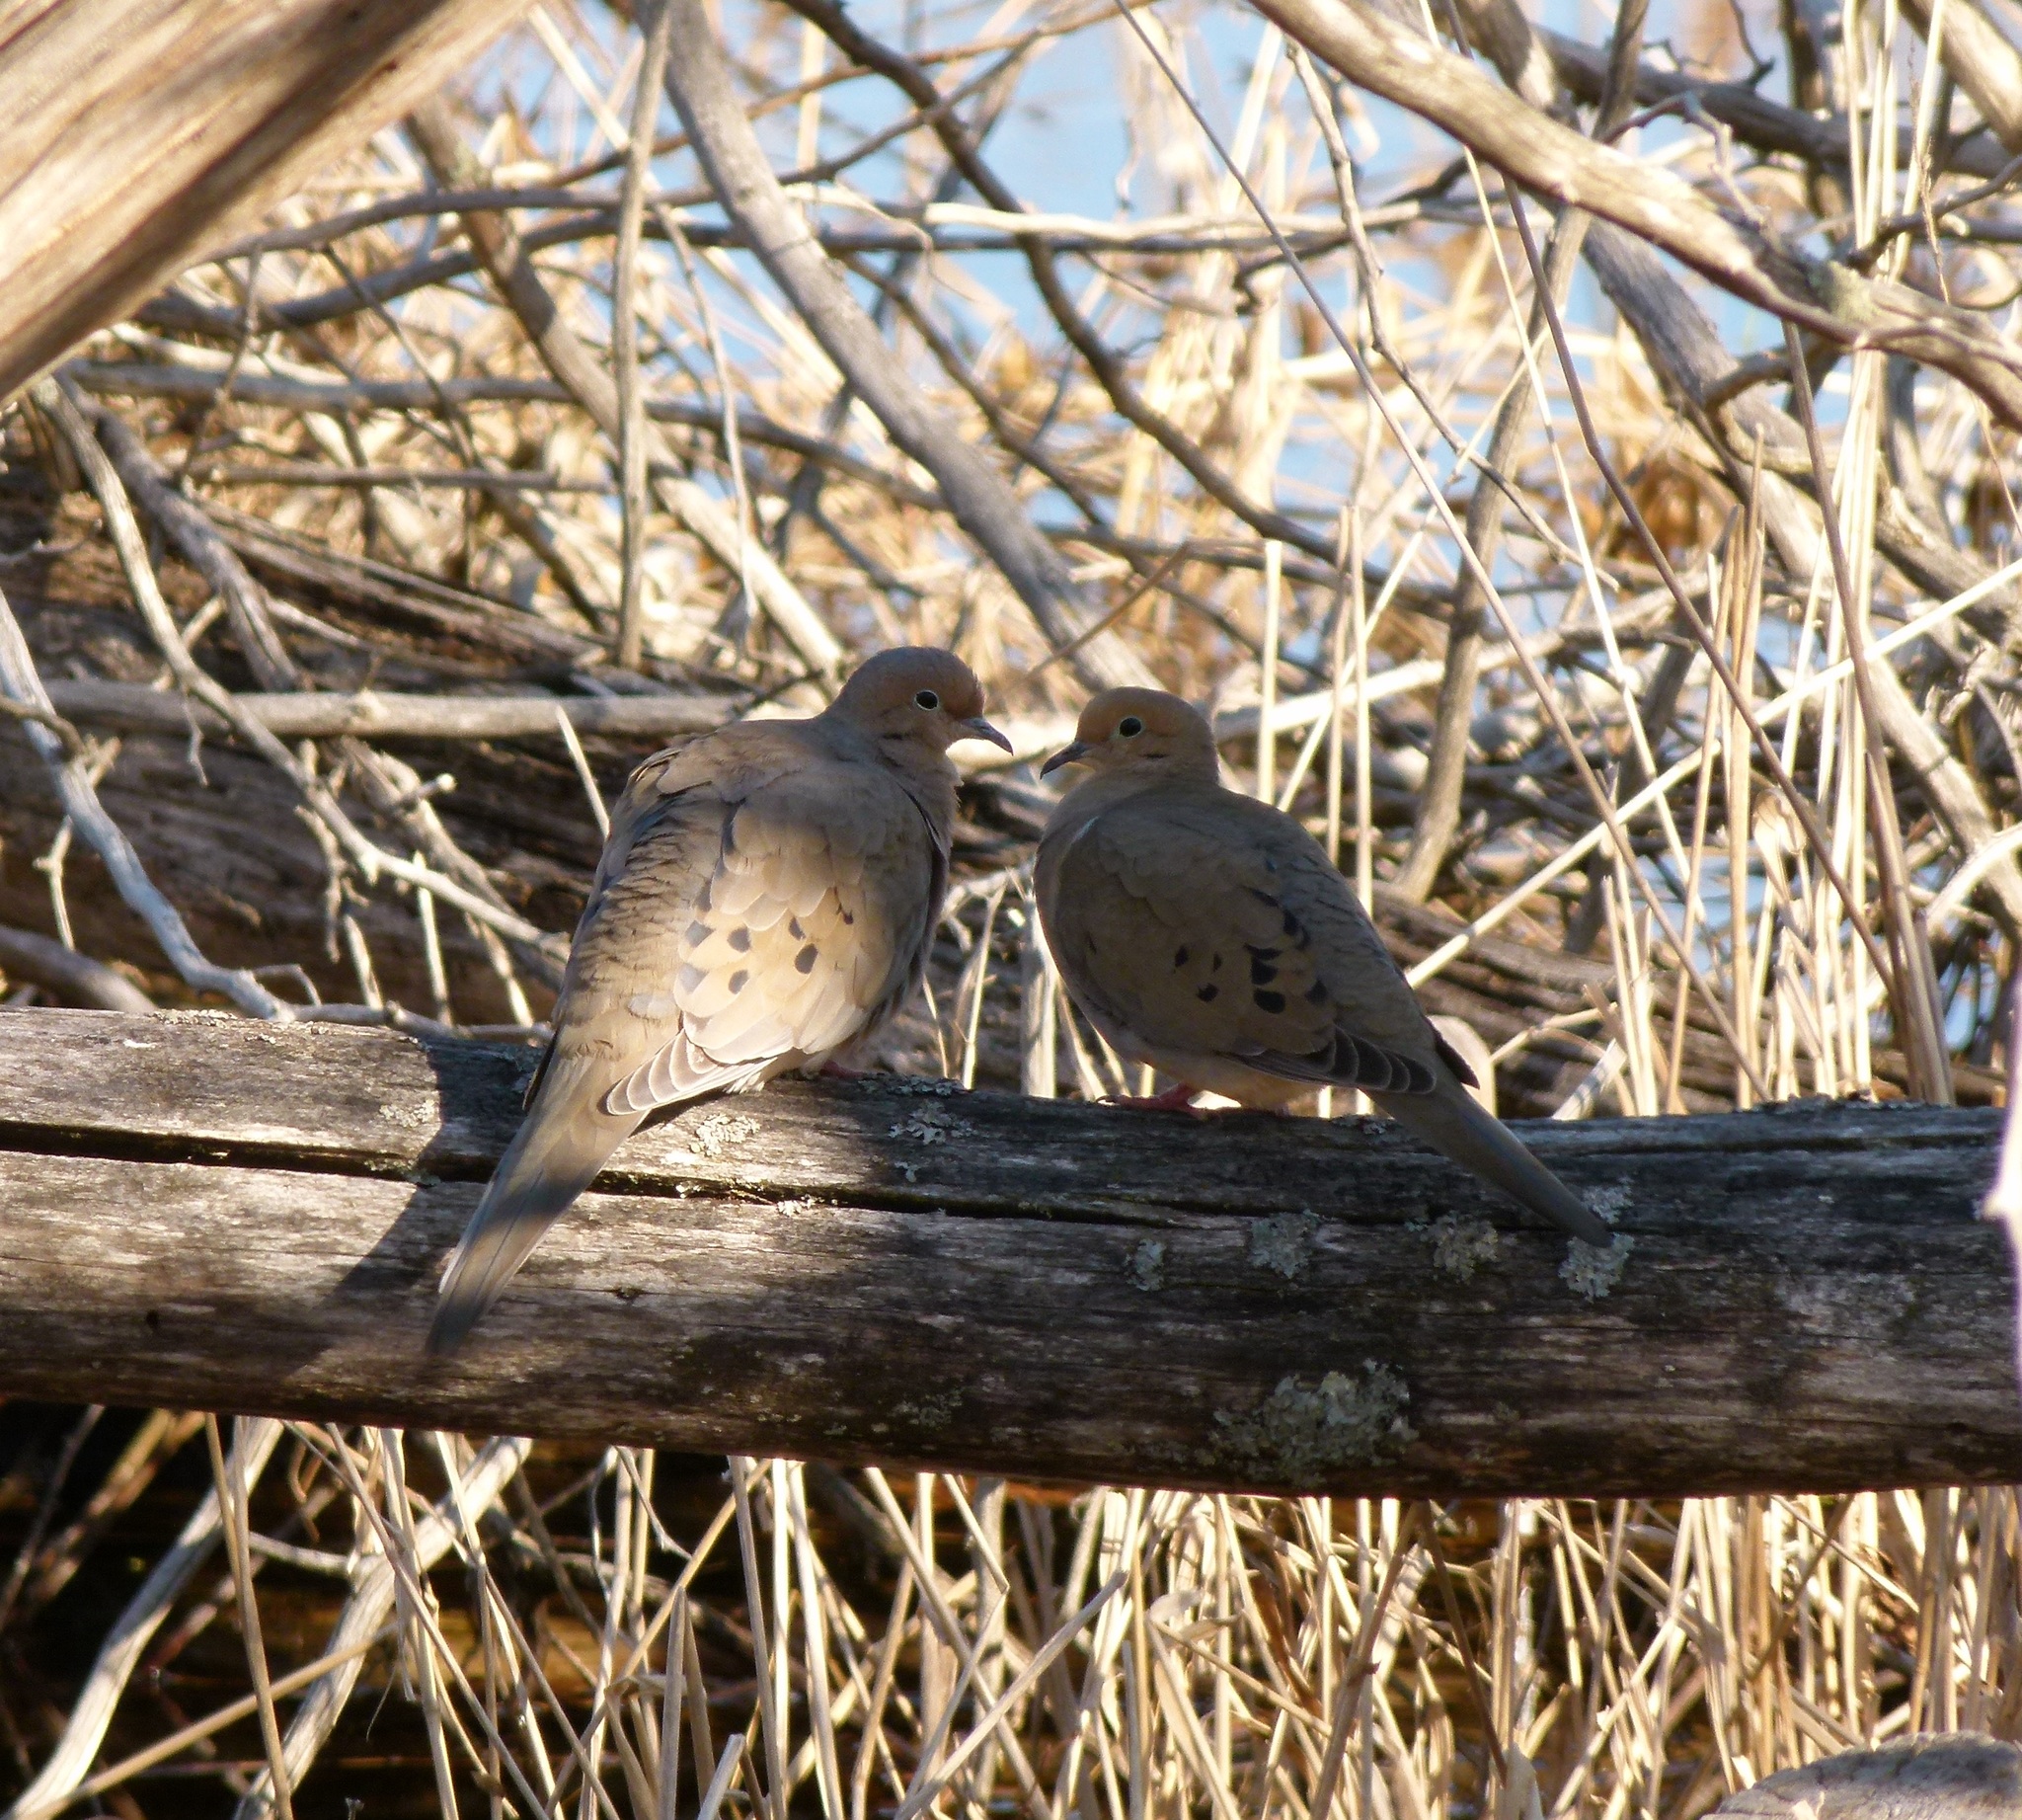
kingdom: Animalia
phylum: Chordata
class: Aves
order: Columbiformes
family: Columbidae
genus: Zenaida
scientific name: Zenaida macroura
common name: Mourning dove
